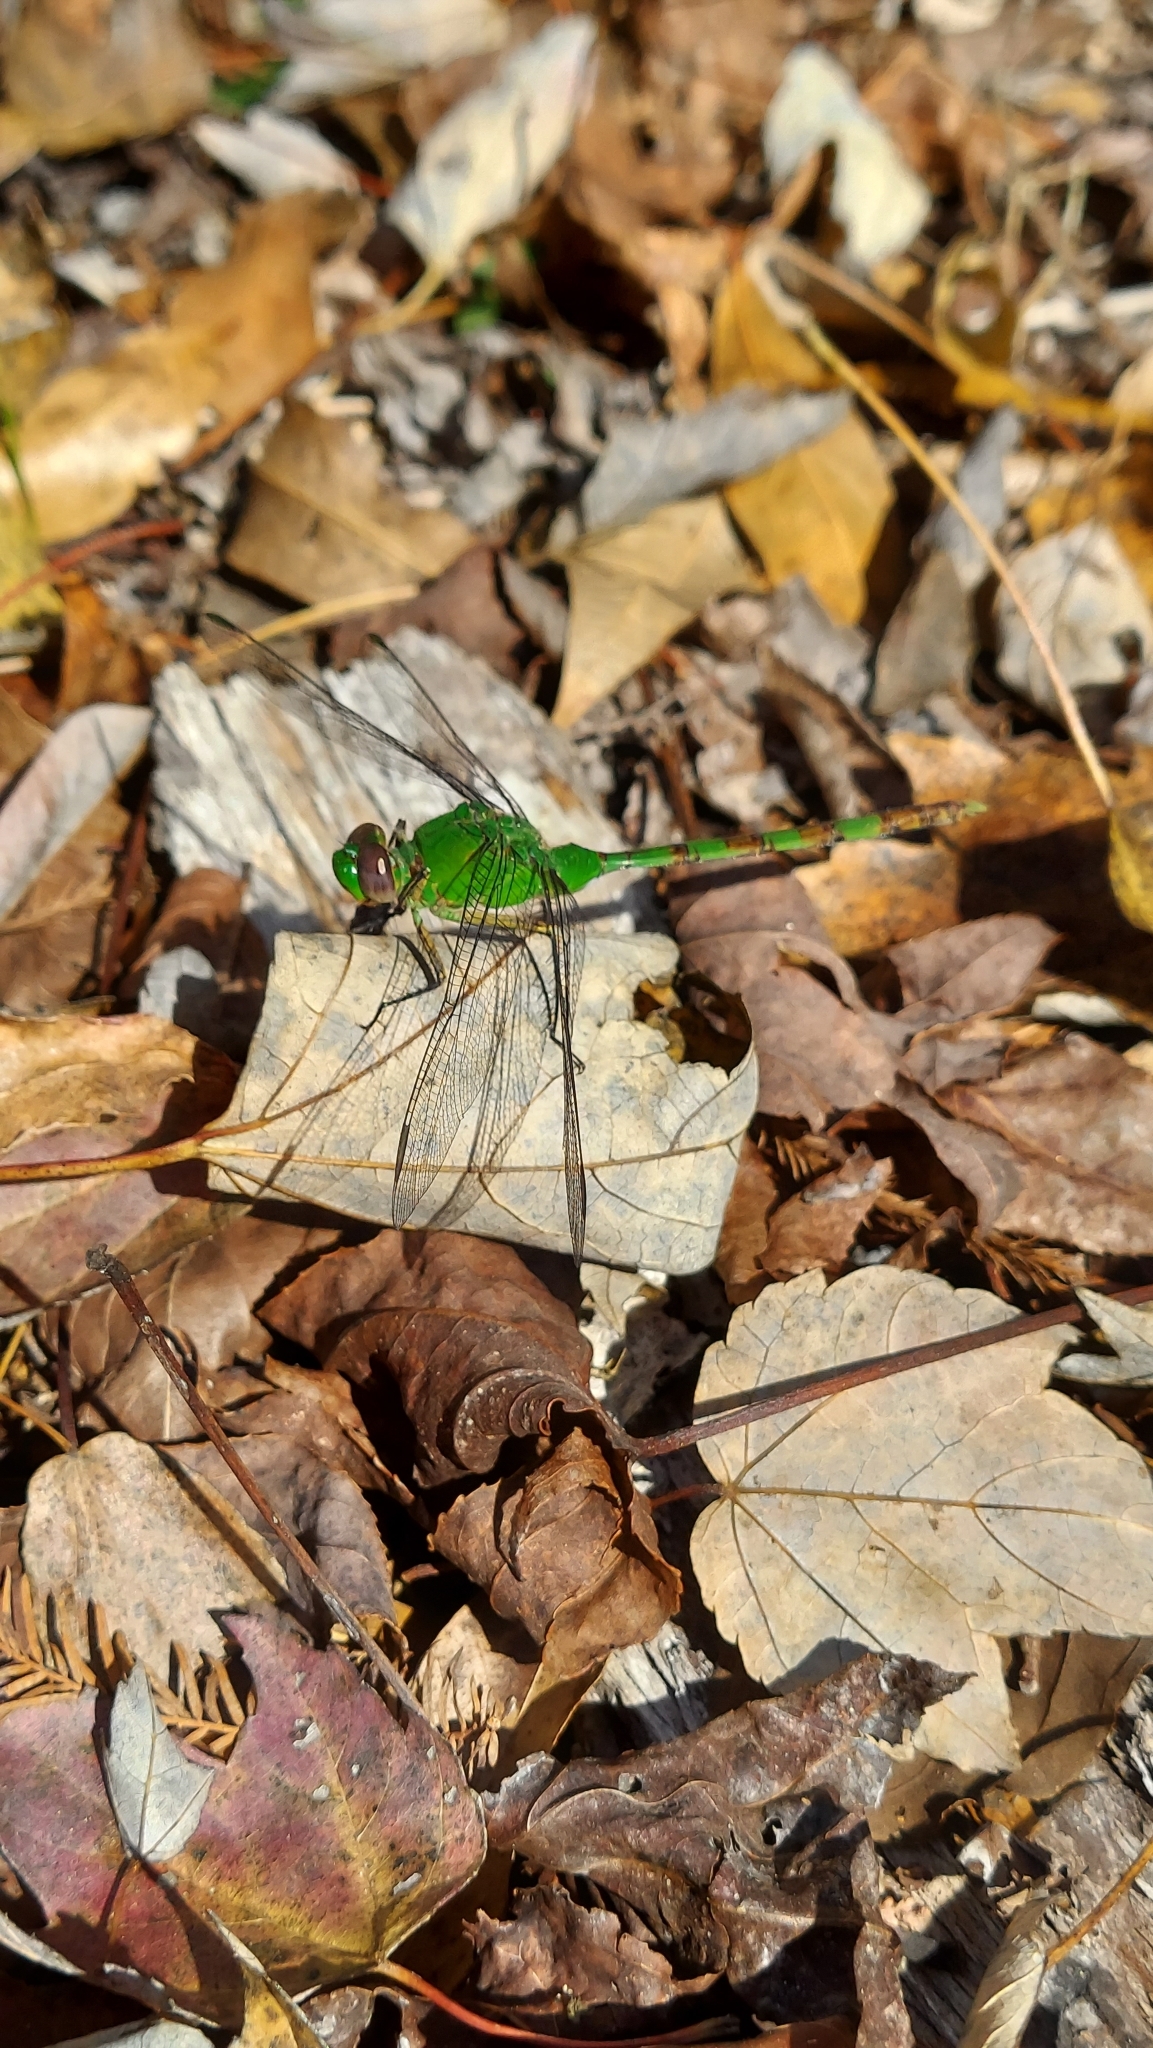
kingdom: Animalia
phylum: Arthropoda
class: Insecta
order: Odonata
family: Libellulidae
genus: Erythemis
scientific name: Erythemis vesiculosa
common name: Great pondhawk
